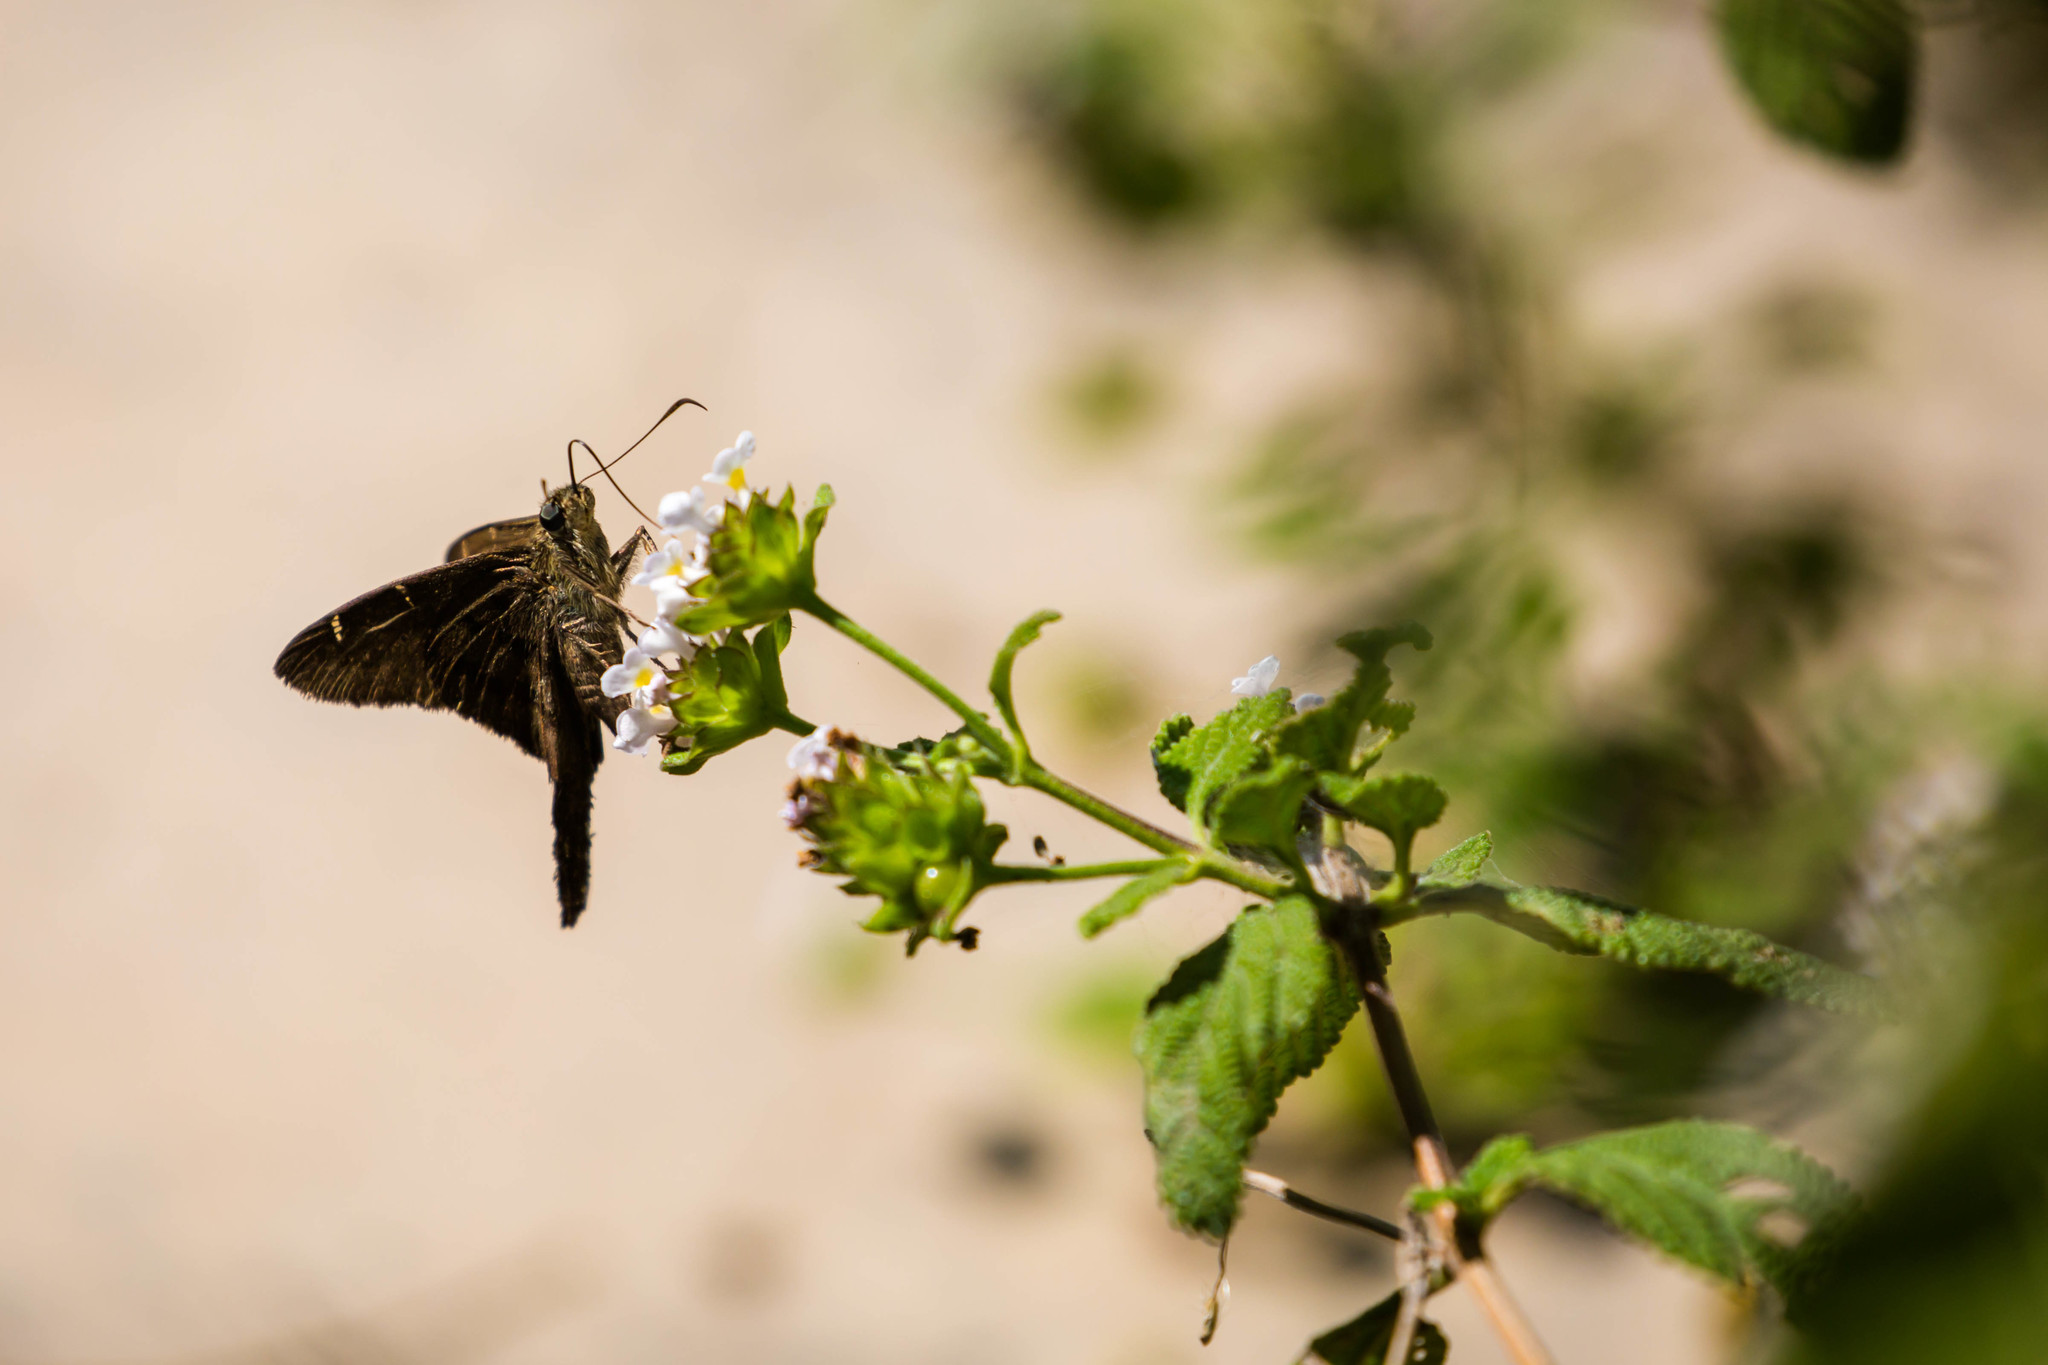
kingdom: Animalia
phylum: Arthropoda
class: Insecta
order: Lepidoptera
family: Hesperiidae
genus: Urbanus
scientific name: Urbanus procne
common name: Brown longtail
